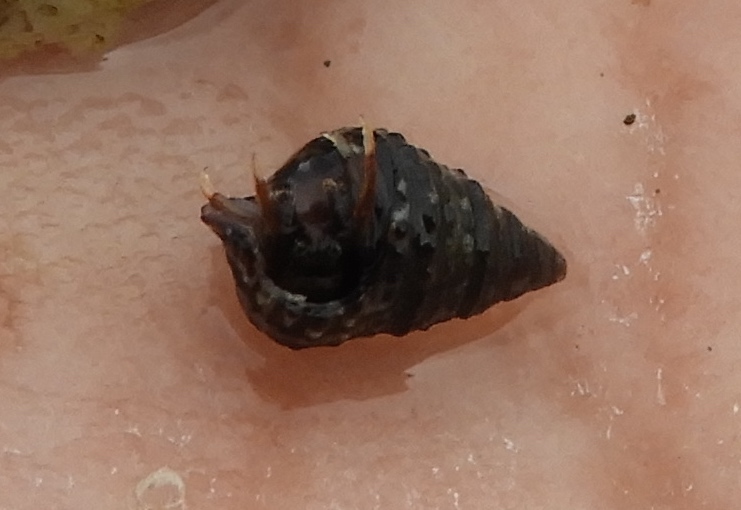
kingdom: Animalia
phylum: Arthropoda
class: Malacostraca
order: Decapoda
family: Diogenidae
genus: Clibanarius
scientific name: Clibanarius digueti
